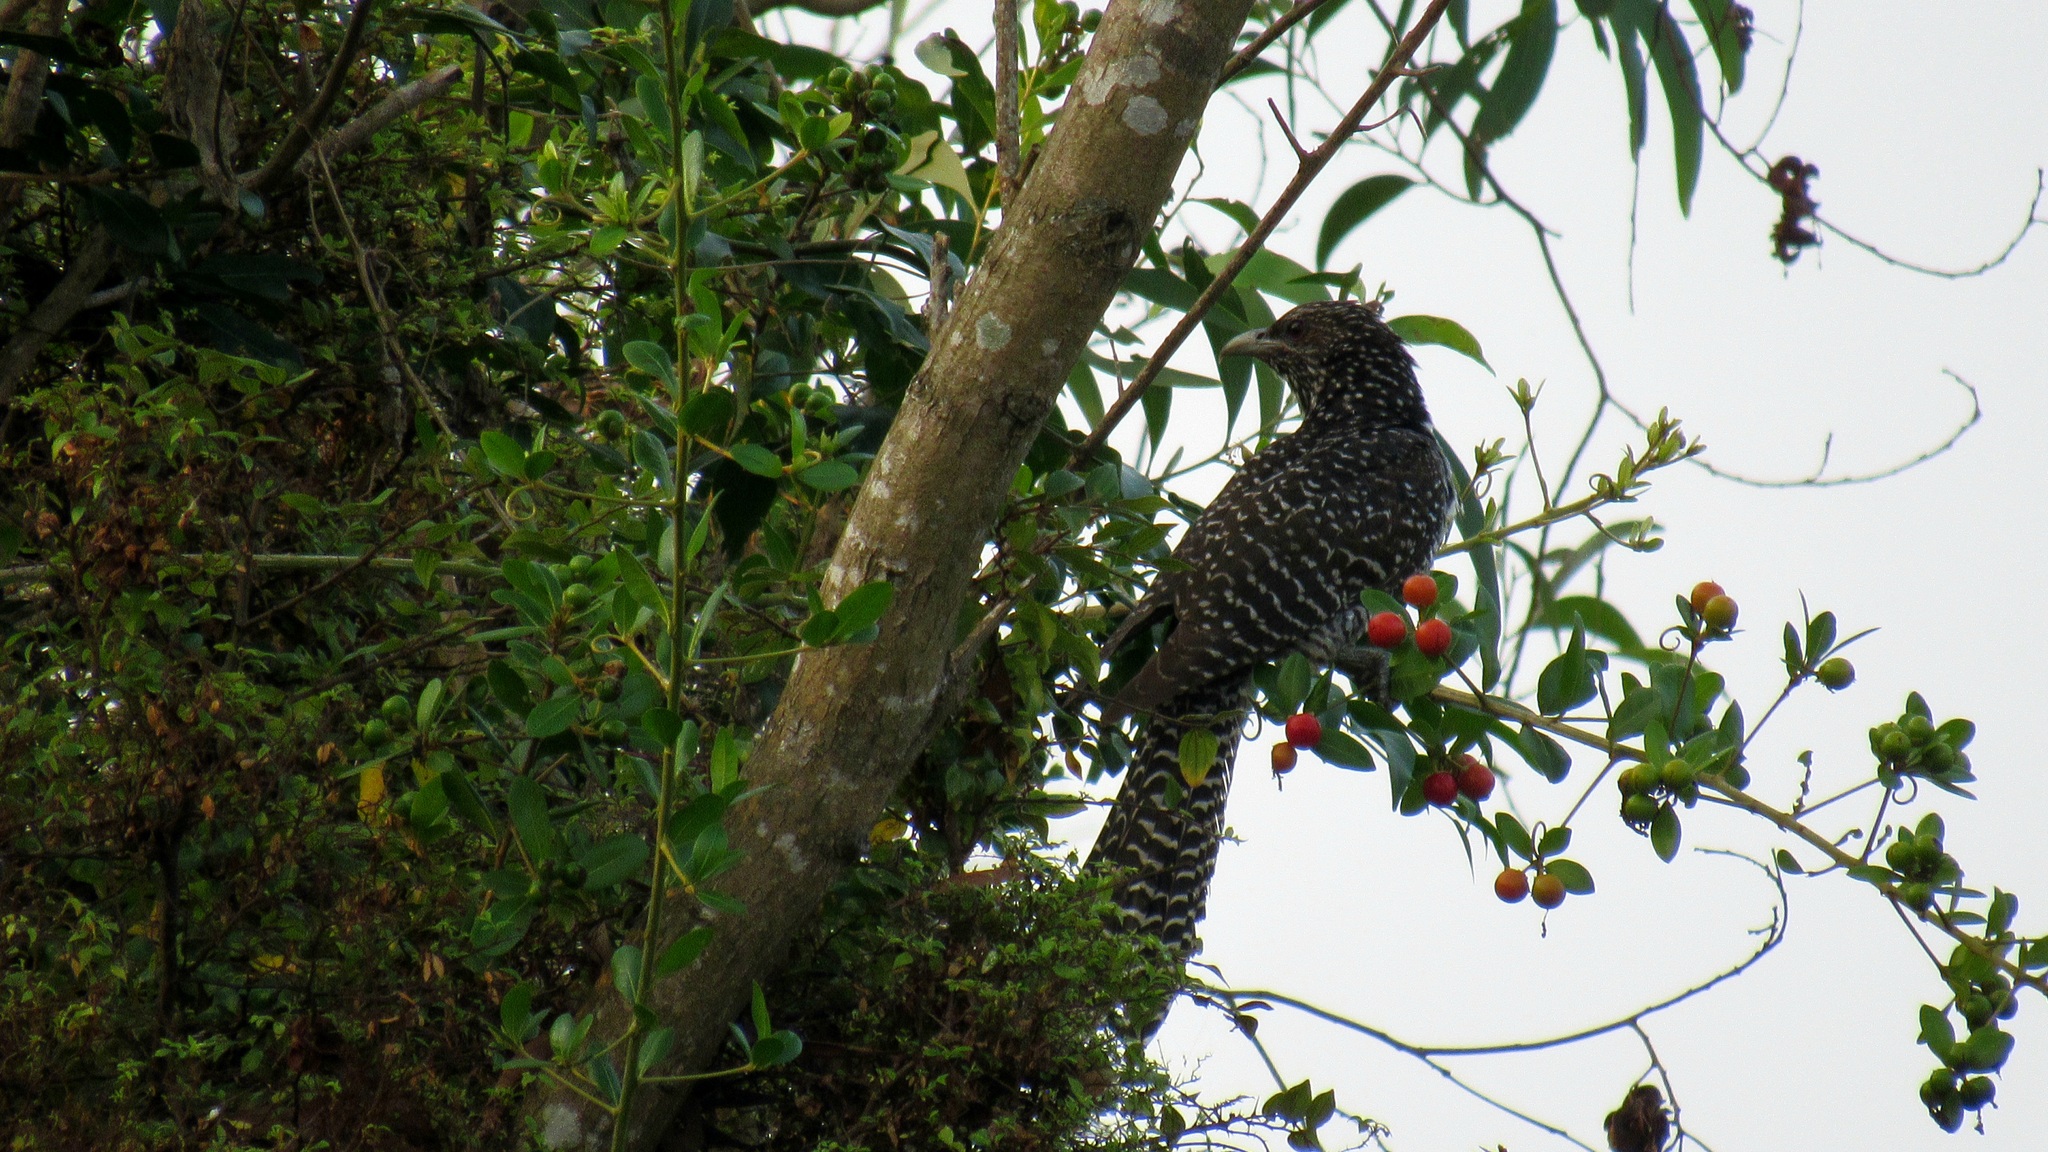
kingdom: Animalia
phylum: Chordata
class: Aves
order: Cuculiformes
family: Cuculidae
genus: Eudynamys
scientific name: Eudynamys scolopaceus
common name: Asian koel
